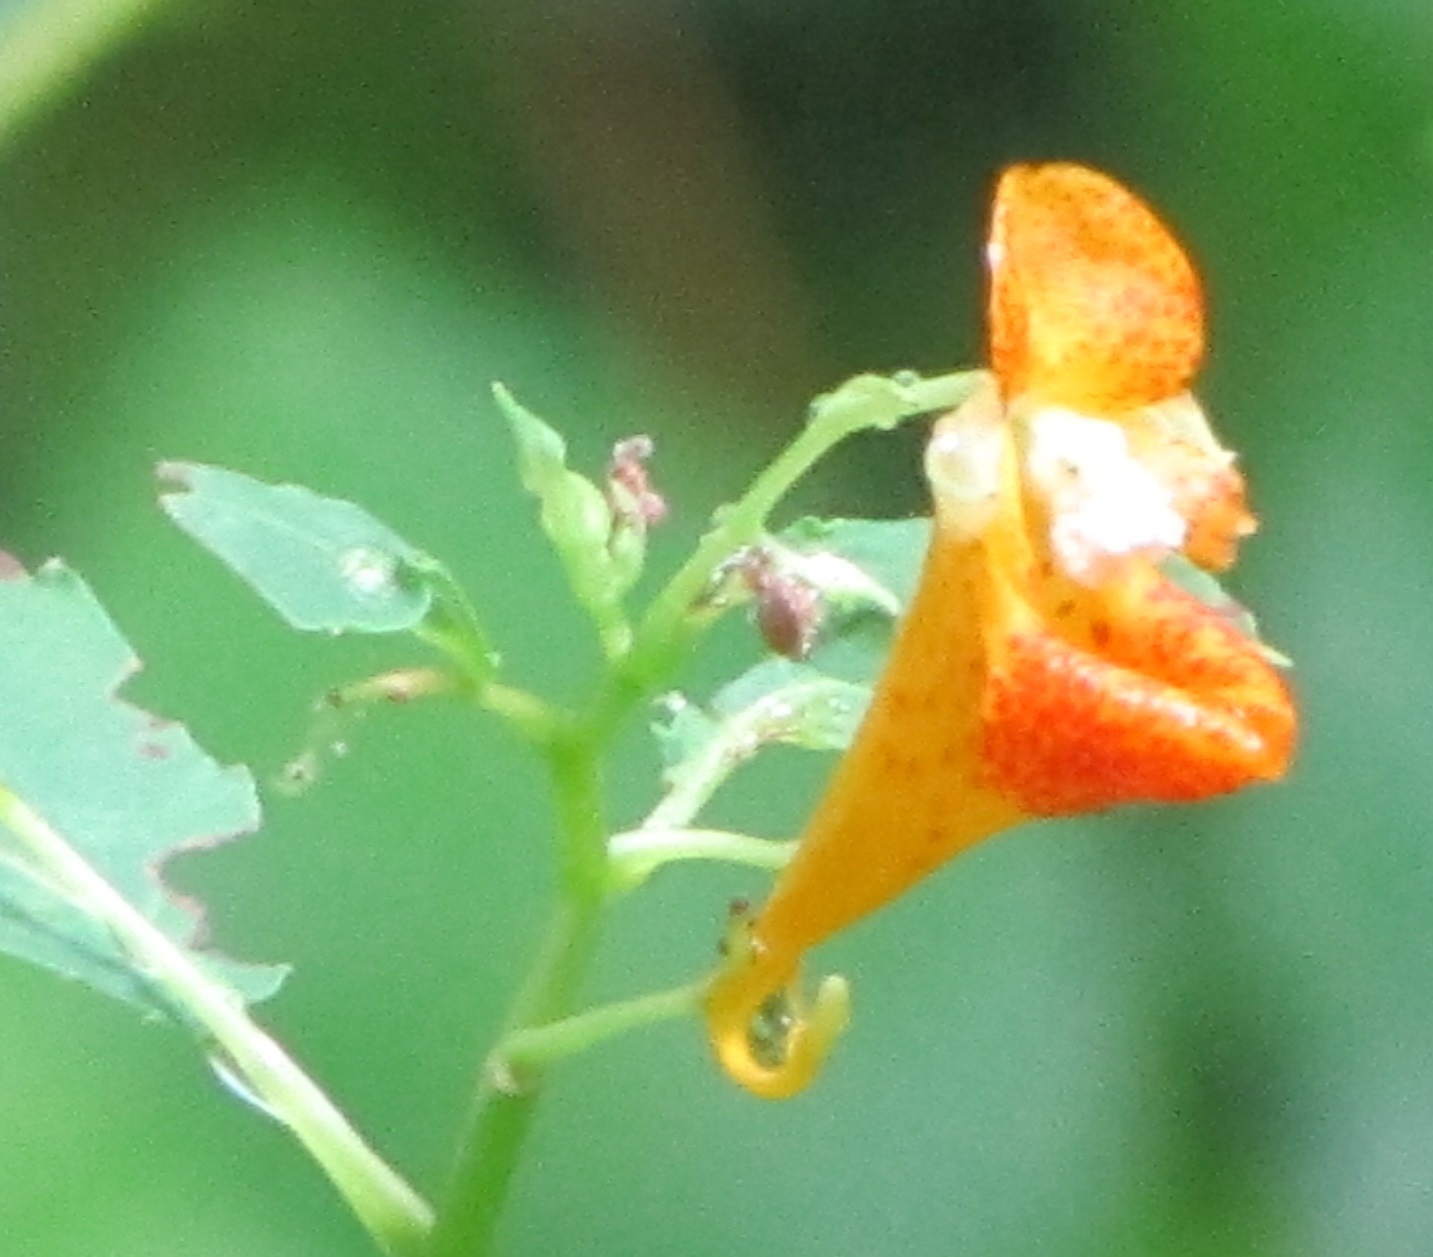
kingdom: Plantae
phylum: Tracheophyta
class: Magnoliopsida
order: Ericales
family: Balsaminaceae
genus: Impatiens
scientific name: Impatiens capensis
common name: Orange balsam
